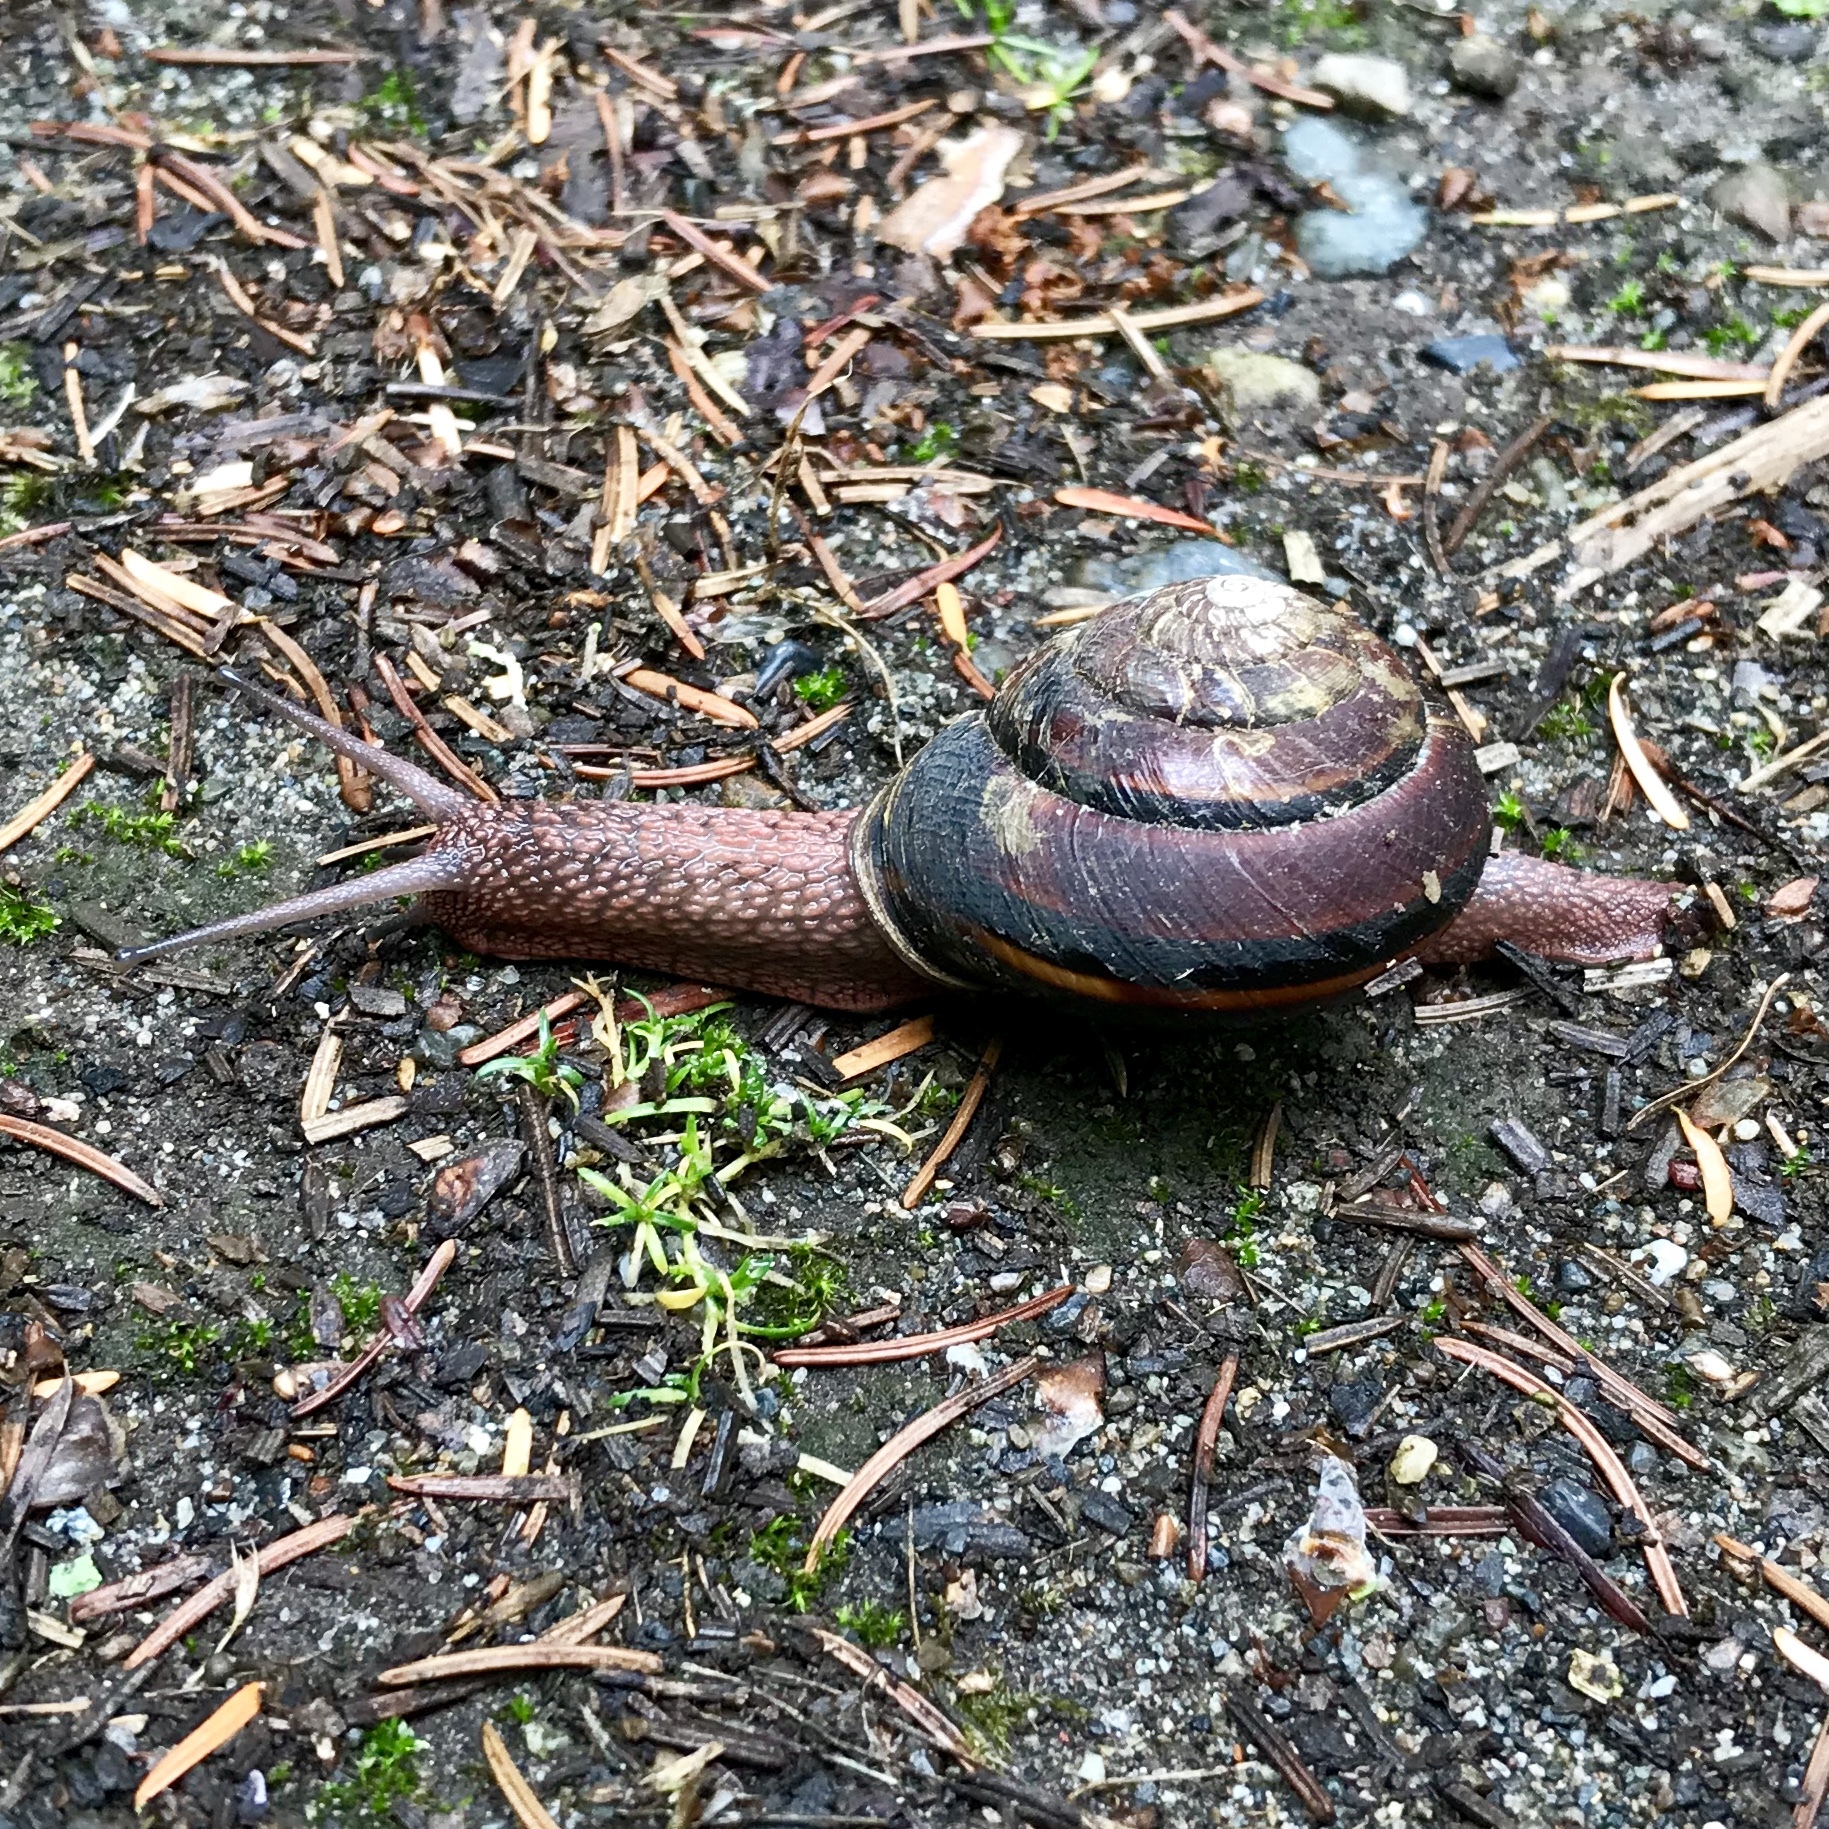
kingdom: Animalia
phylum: Mollusca
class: Gastropoda
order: Stylommatophora
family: Xanthonychidae
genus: Monadenia
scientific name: Monadenia fidelis
